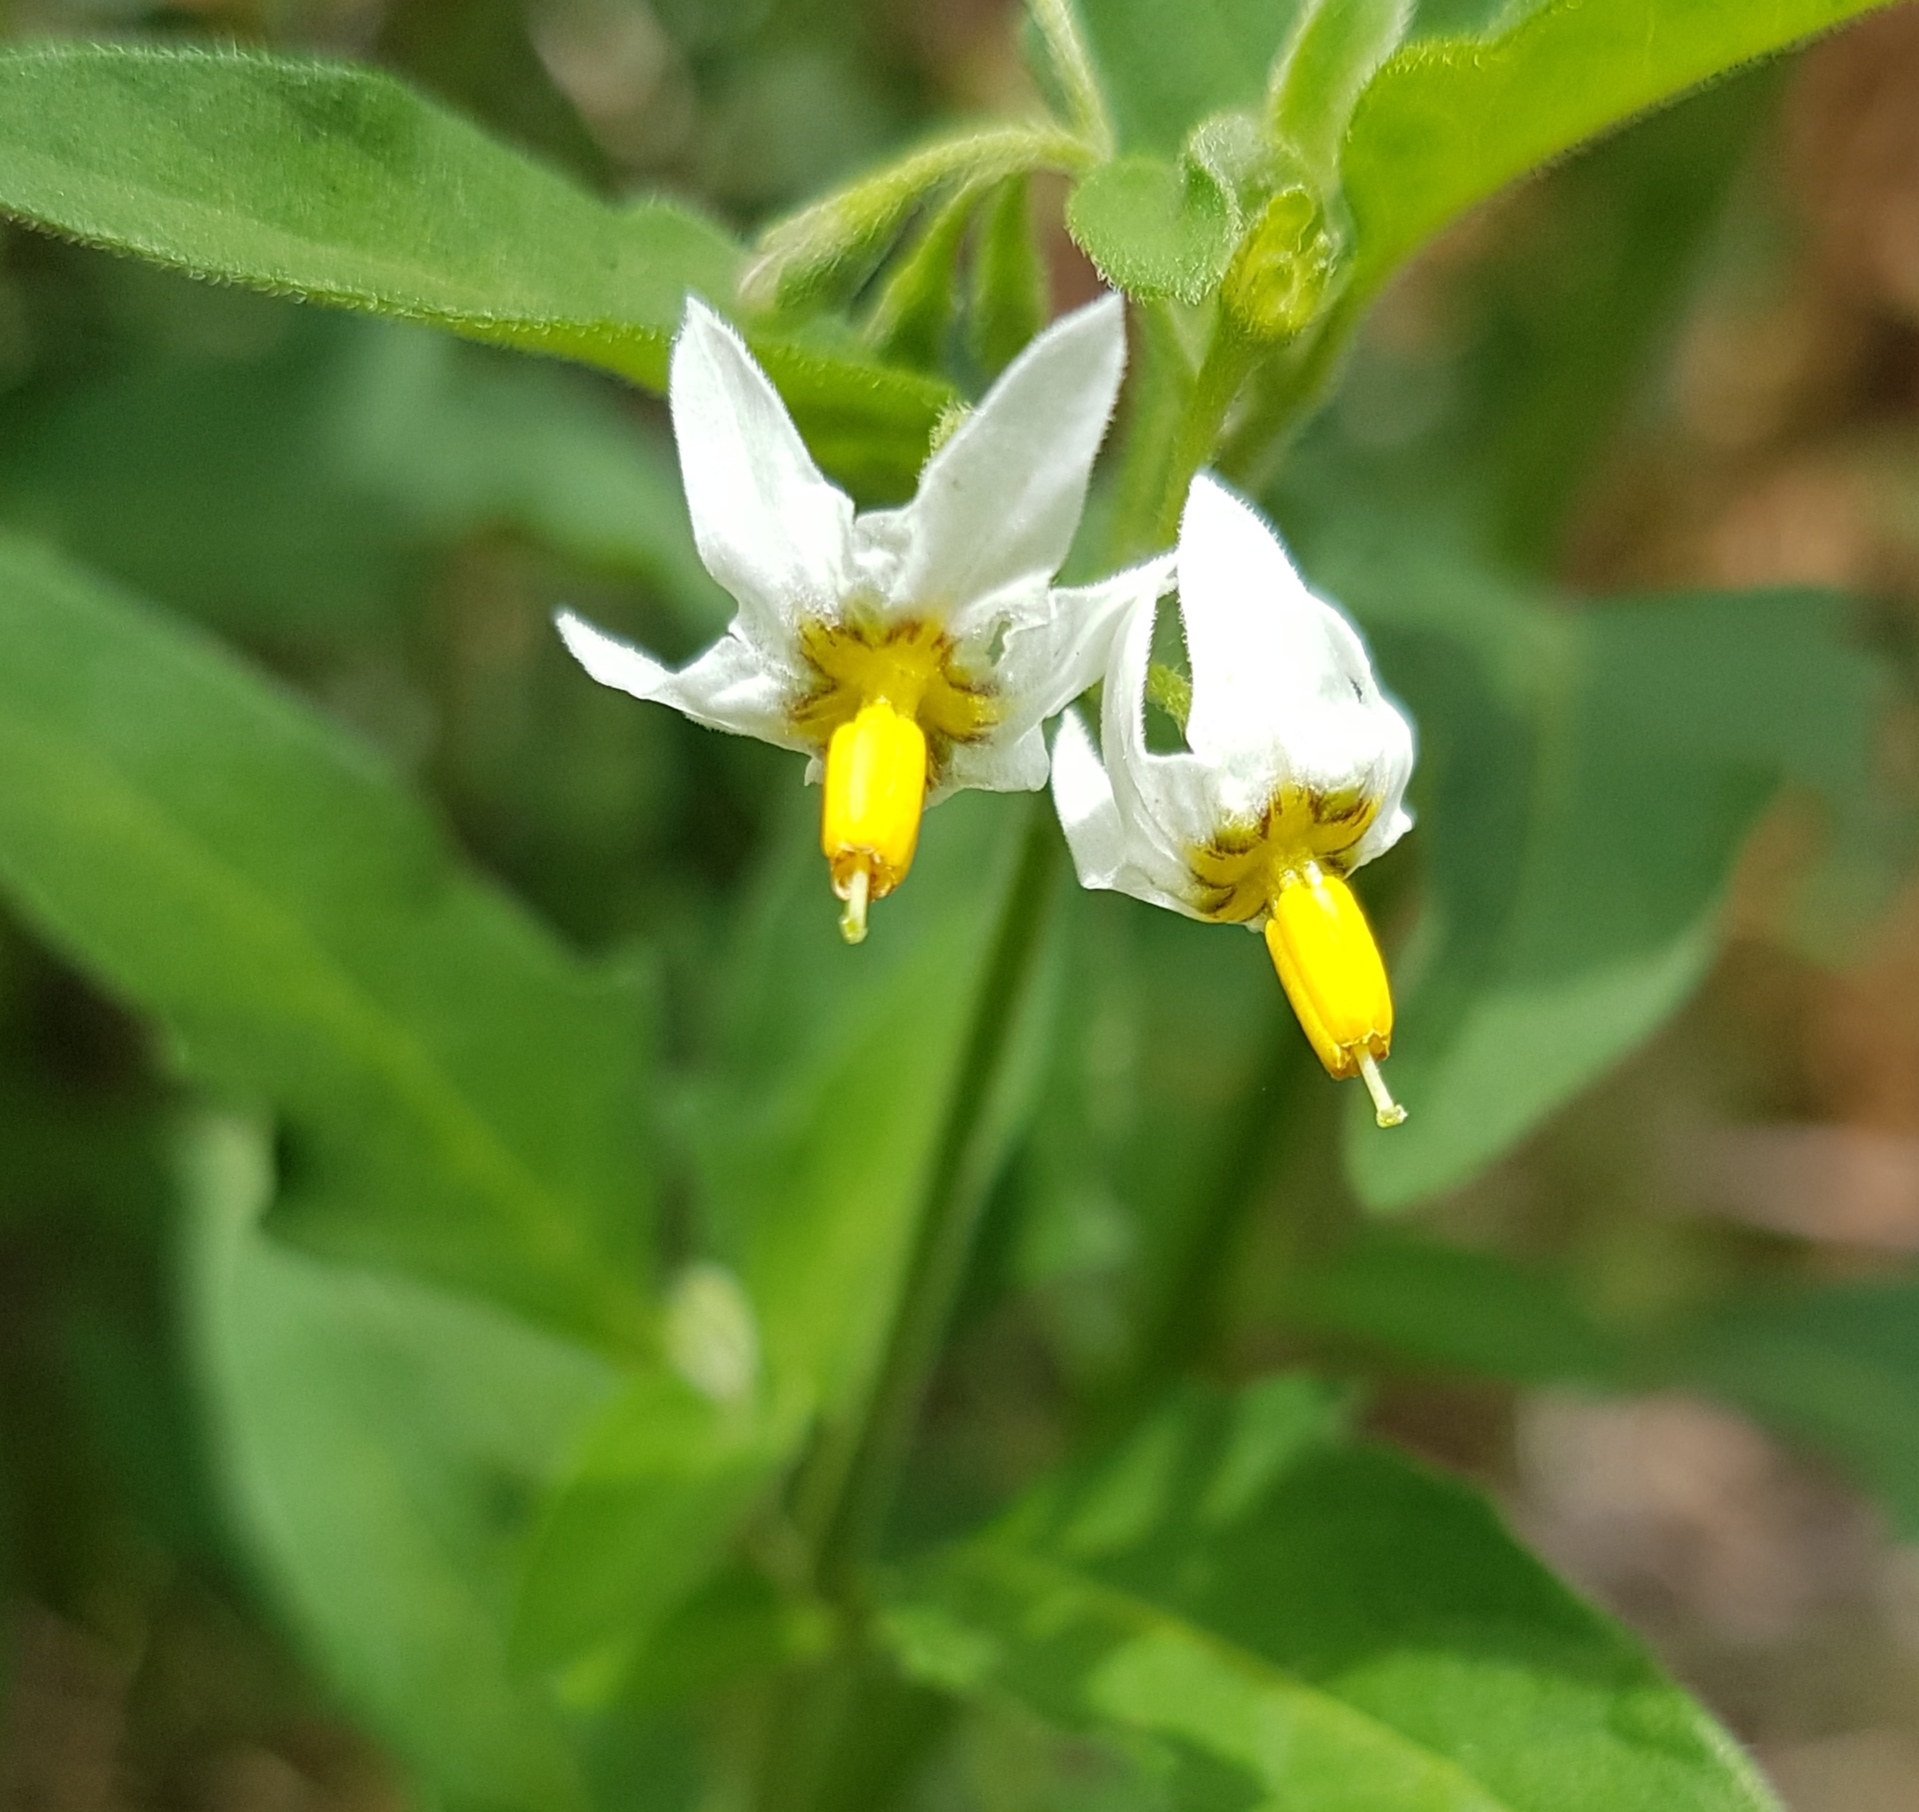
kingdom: Plantae
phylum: Tracheophyta
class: Magnoliopsida
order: Solanales
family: Solanaceae
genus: Solanum
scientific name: Solanum chenopodioides
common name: Tall nightshade
